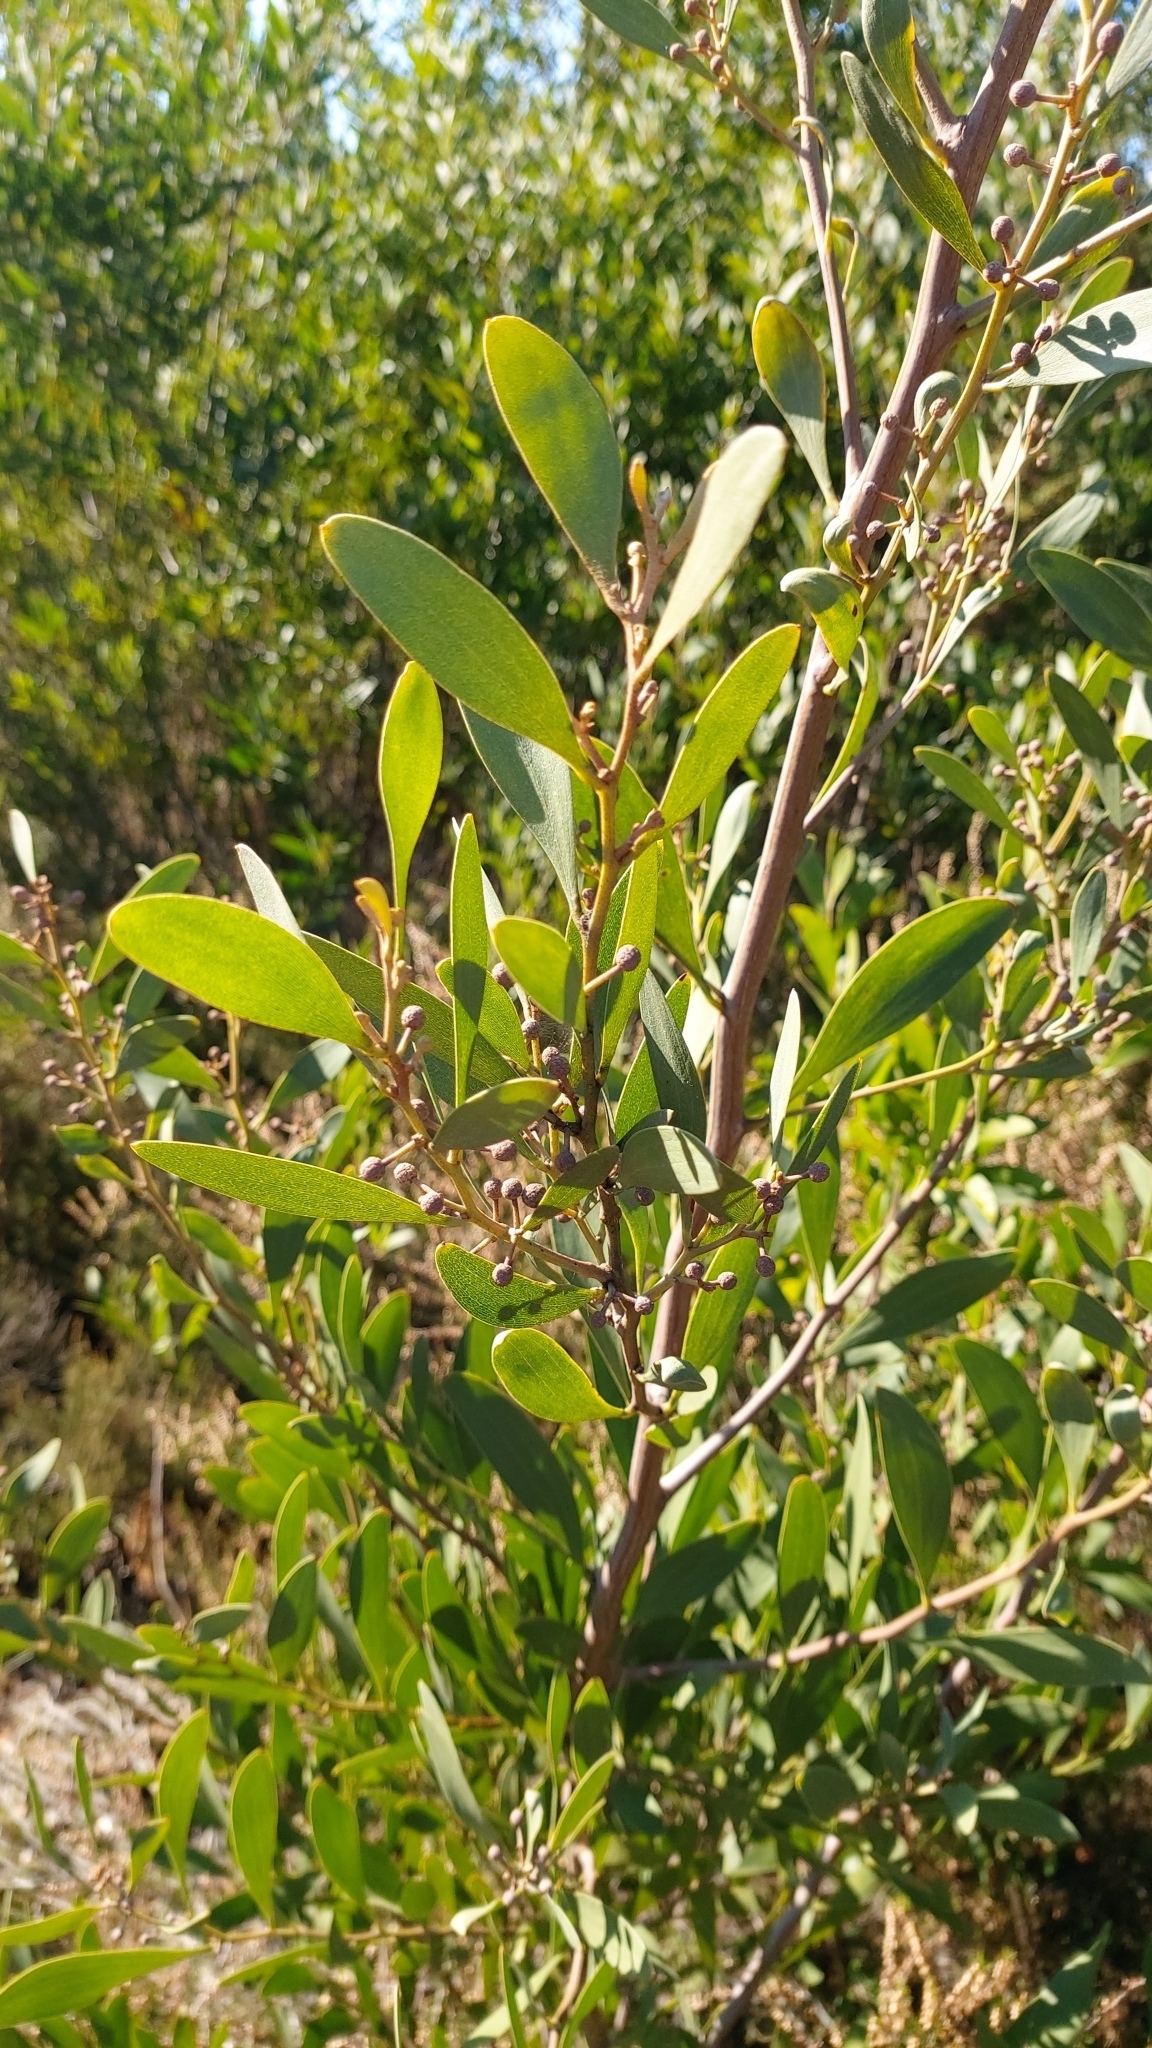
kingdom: Plantae
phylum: Tracheophyta
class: Magnoliopsida
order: Fabales
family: Fabaceae
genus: Acacia
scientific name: Acacia melanoxylon
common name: Blackwood
